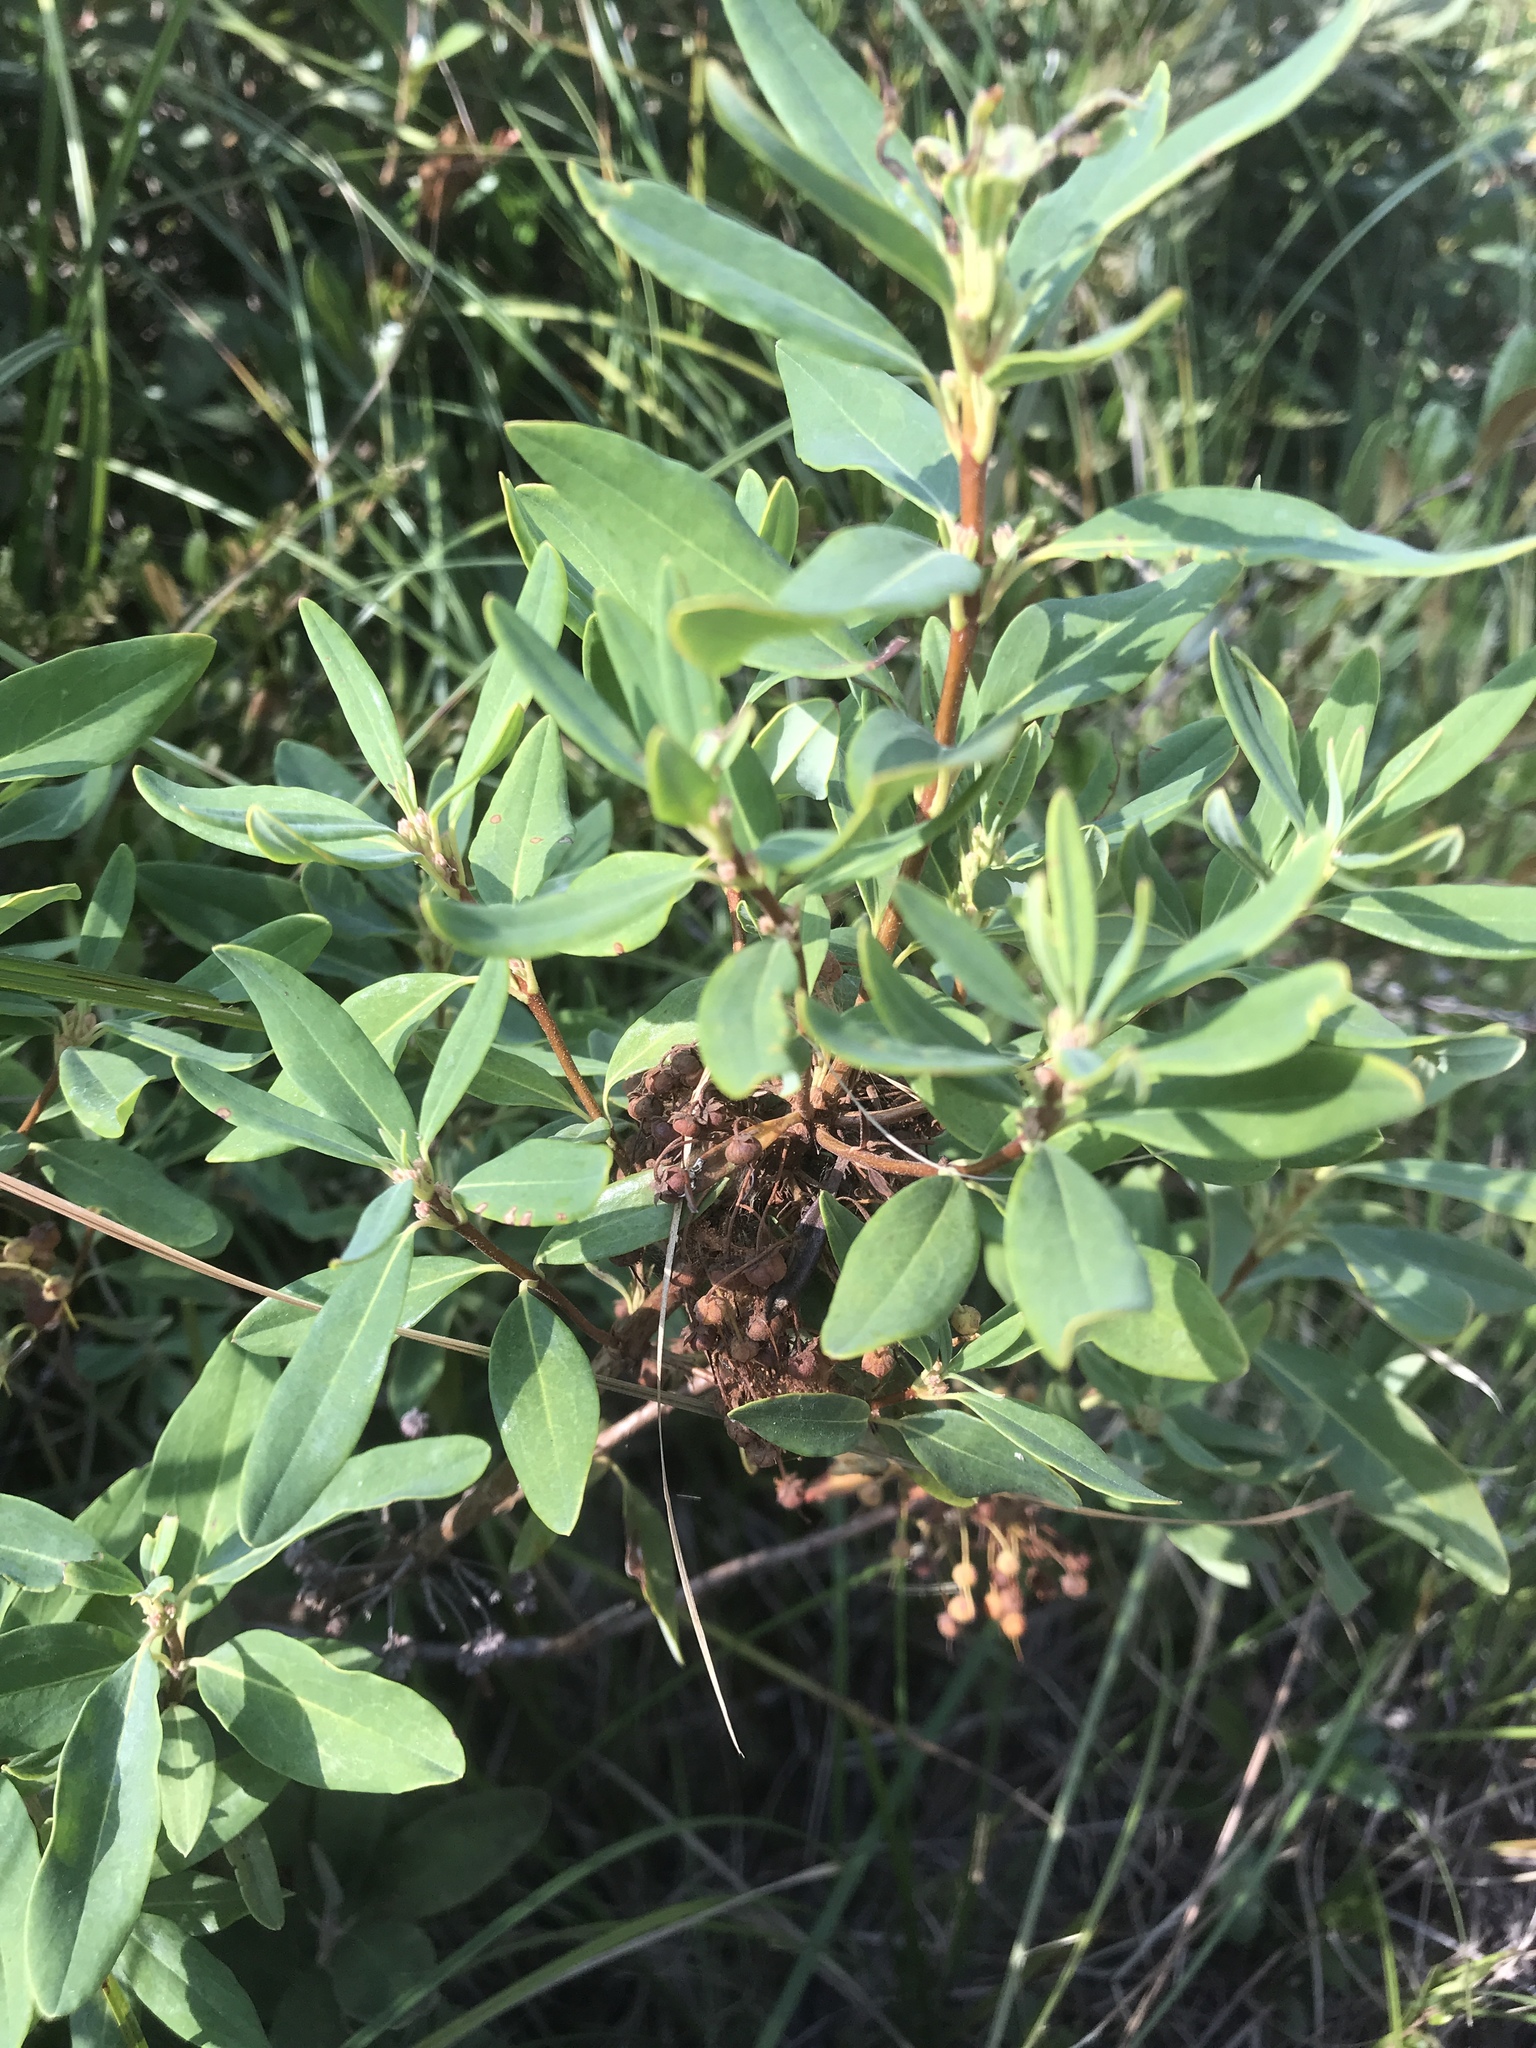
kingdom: Plantae
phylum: Tracheophyta
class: Magnoliopsida
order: Ericales
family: Ericaceae
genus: Kalmia
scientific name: Kalmia angustifolia
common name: Sheep-laurel
